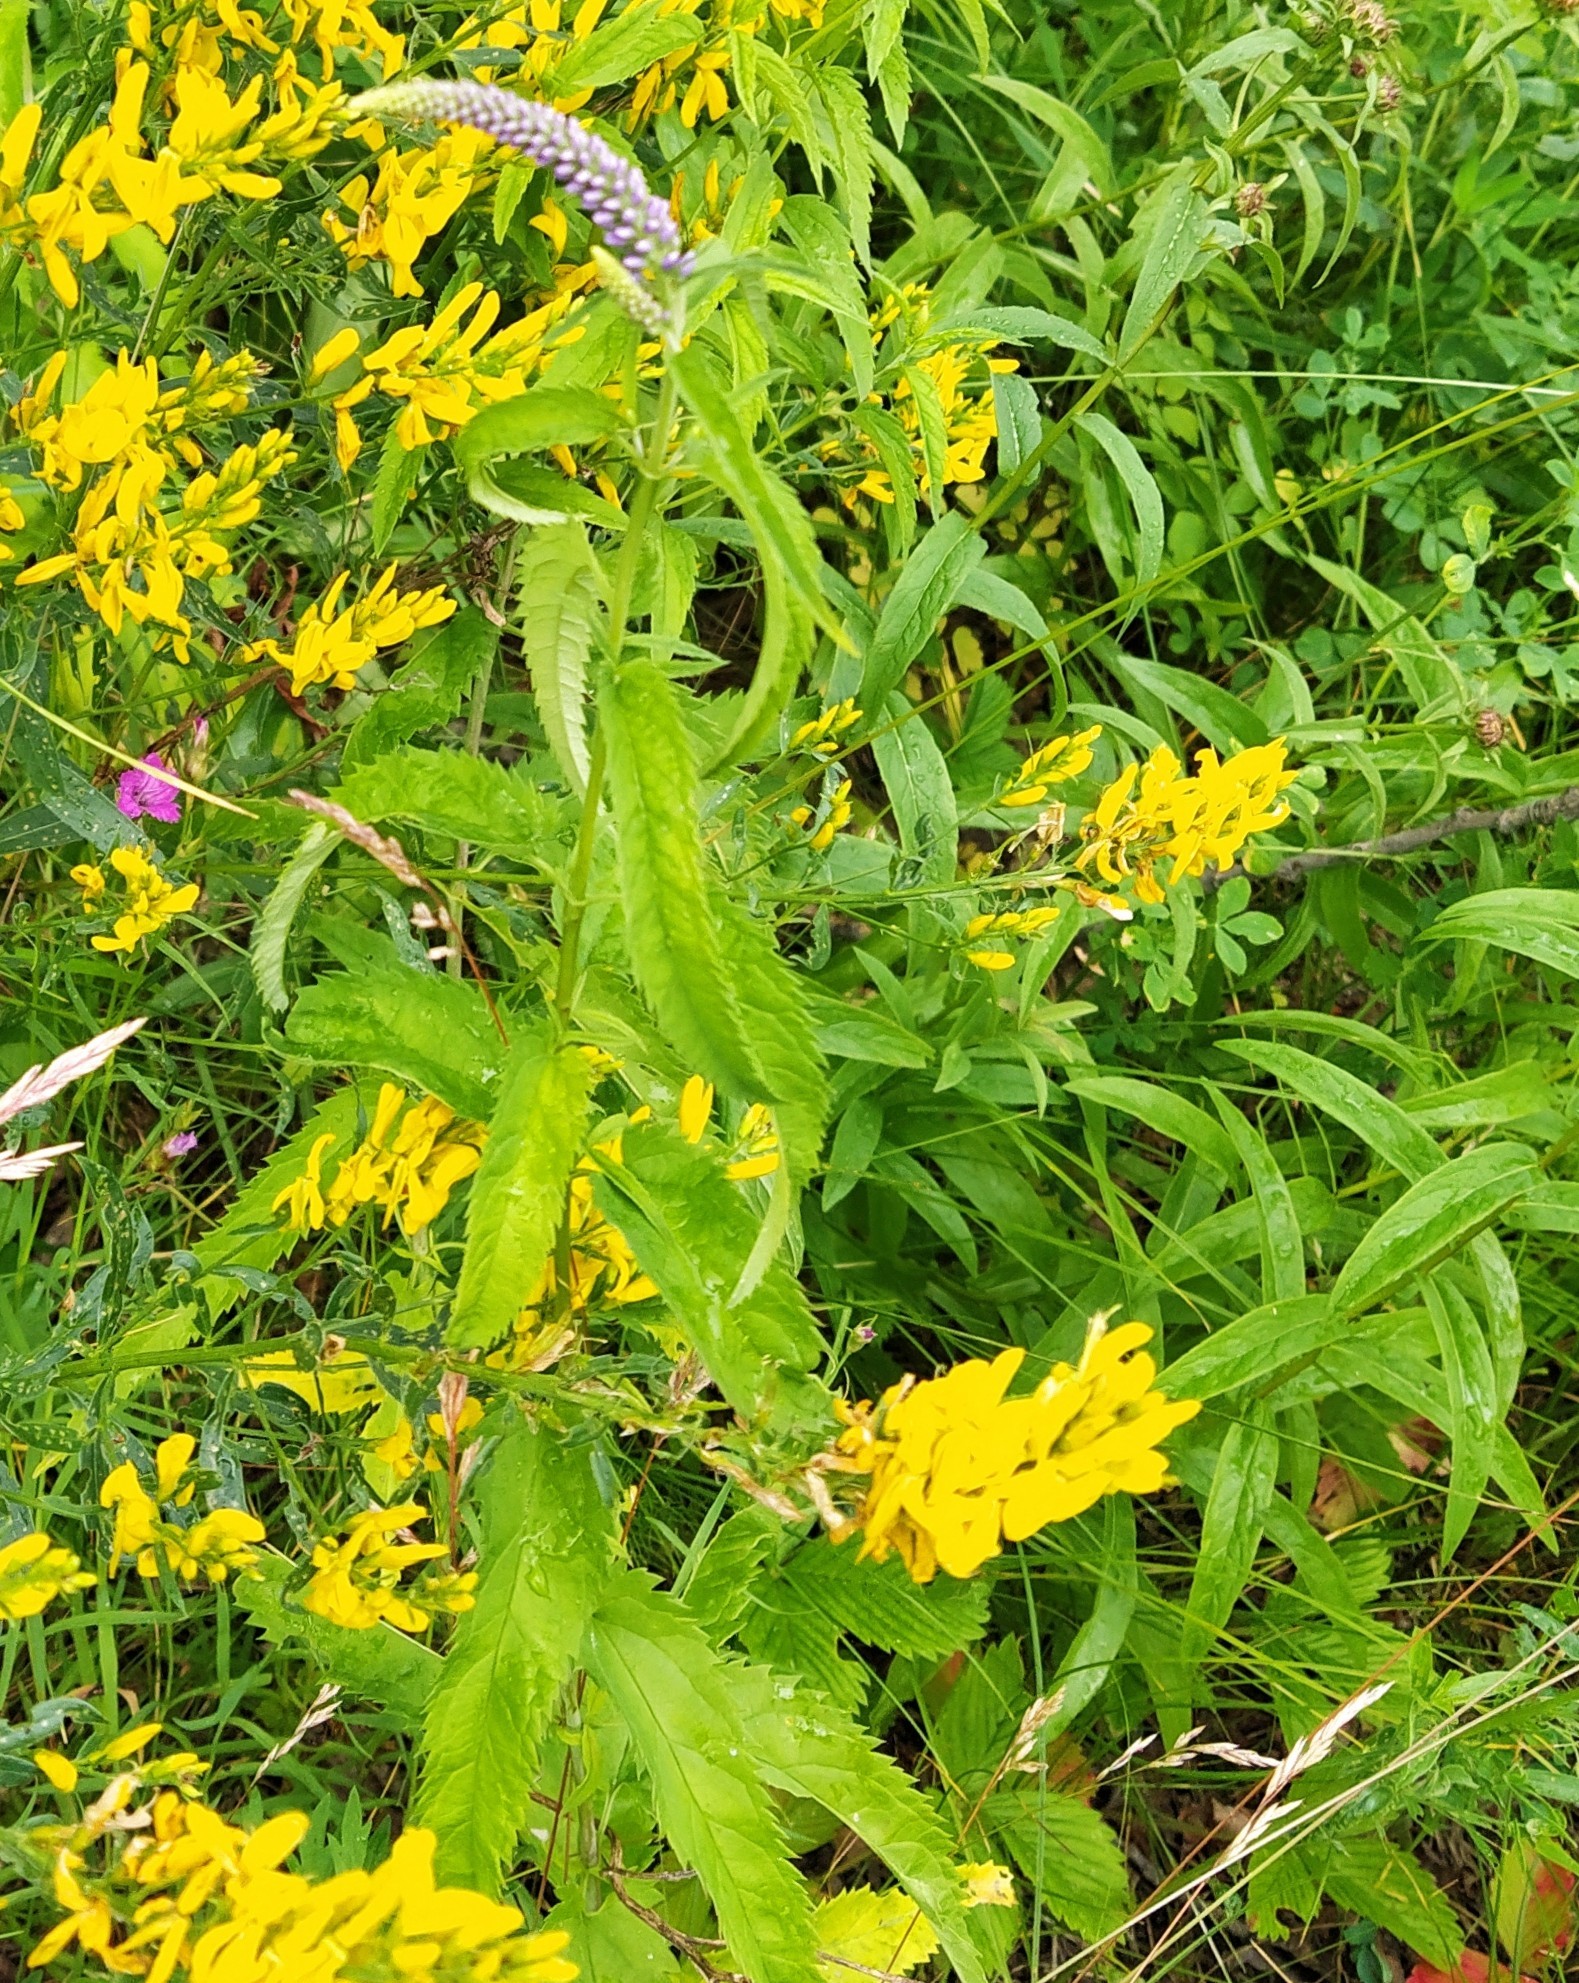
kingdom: Plantae
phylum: Tracheophyta
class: Magnoliopsida
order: Lamiales
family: Plantaginaceae
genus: Veronica
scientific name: Veronica longifolia
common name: Garden speedwell
